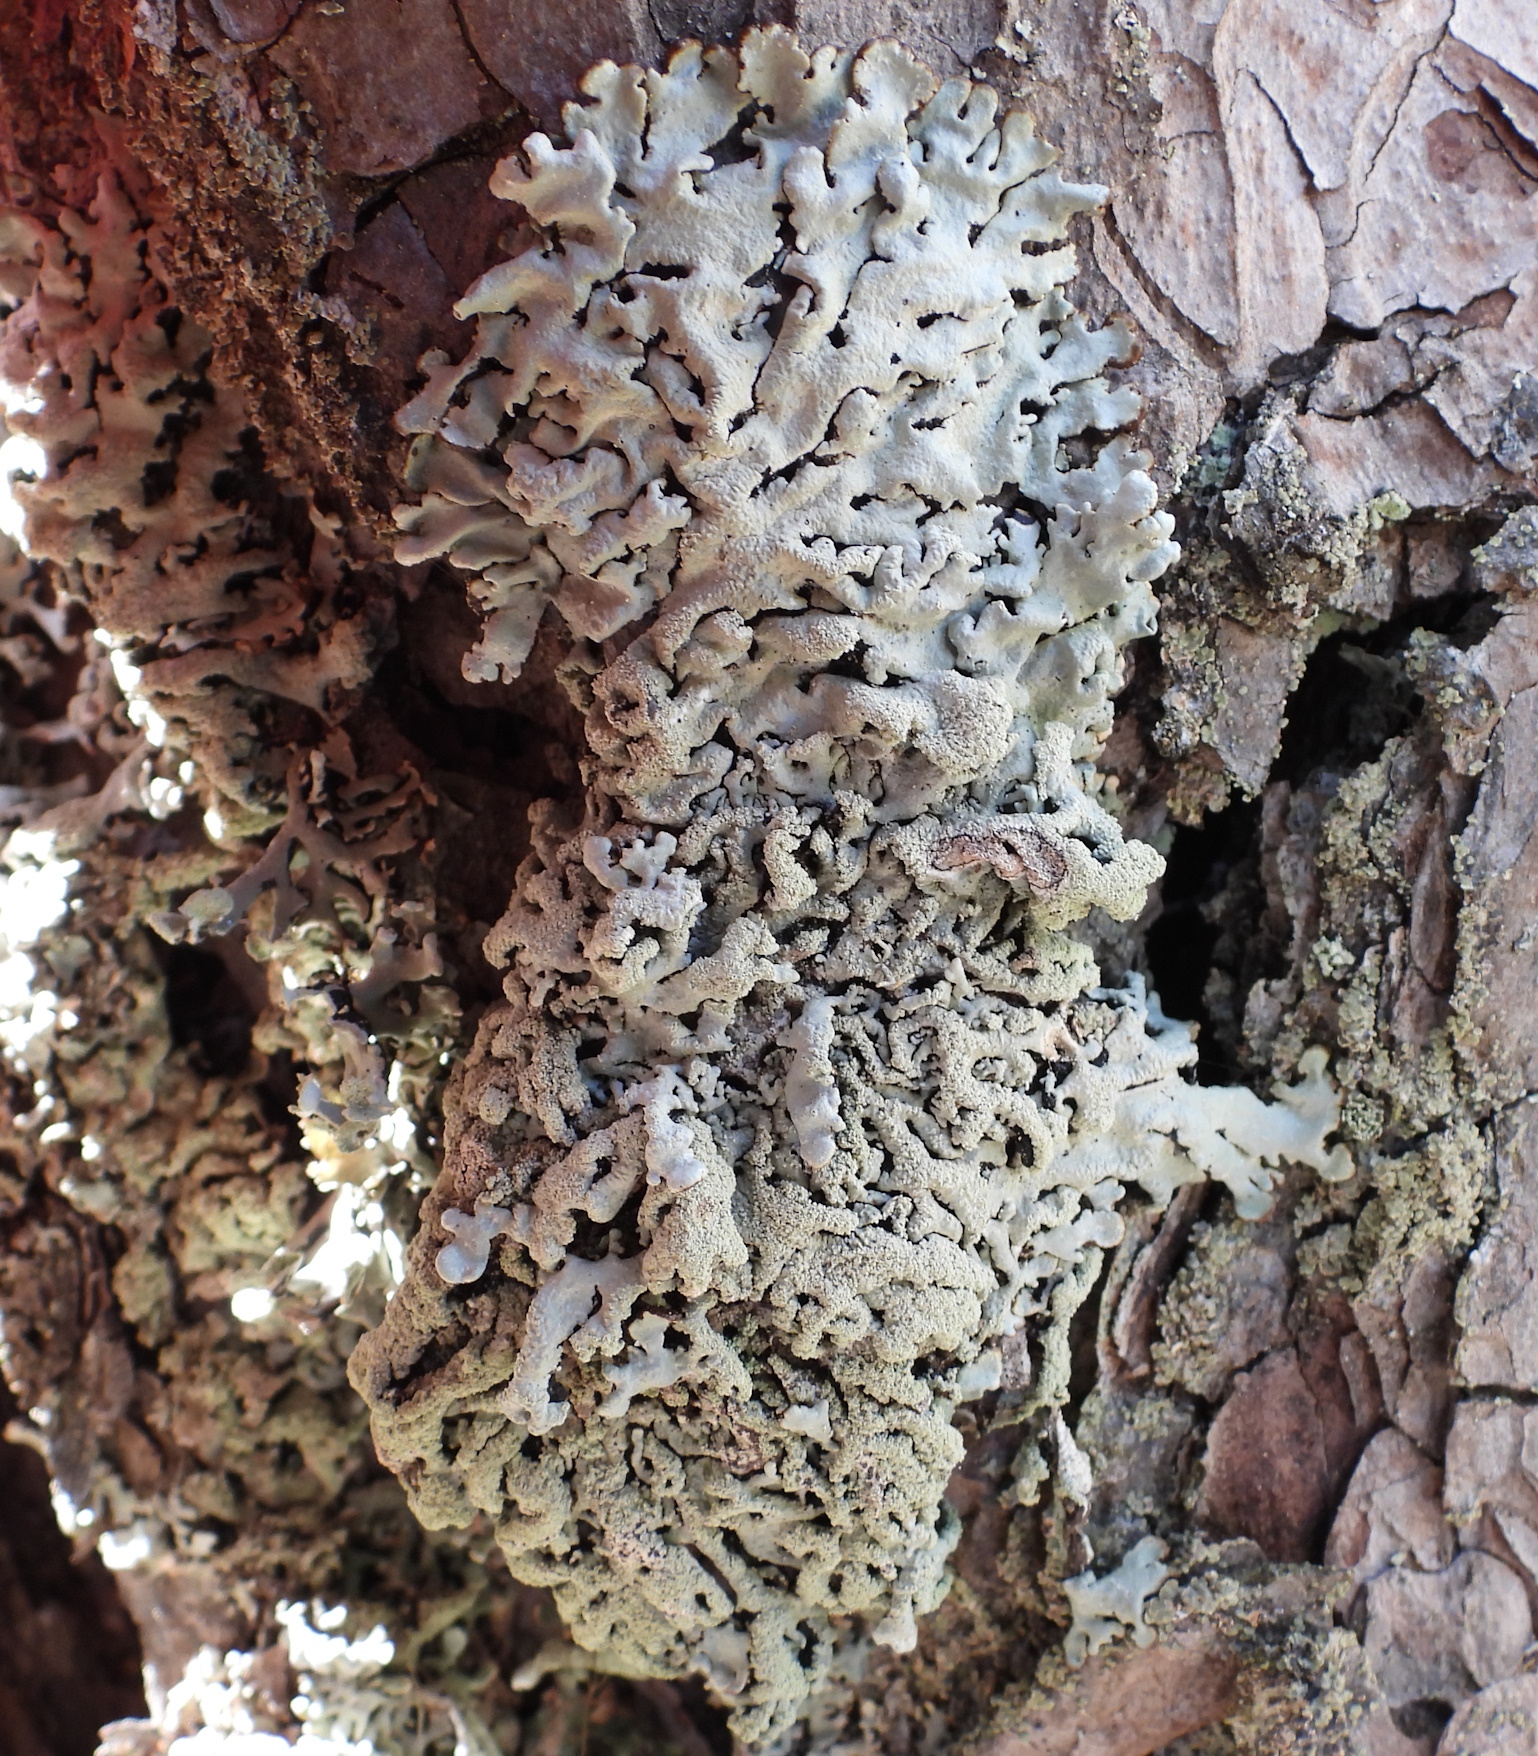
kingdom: Fungi
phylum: Ascomycota
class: Lecanoromycetes
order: Lecanorales
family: Parmeliaceae
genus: Hypogymnia
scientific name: Hypogymnia farinacea
